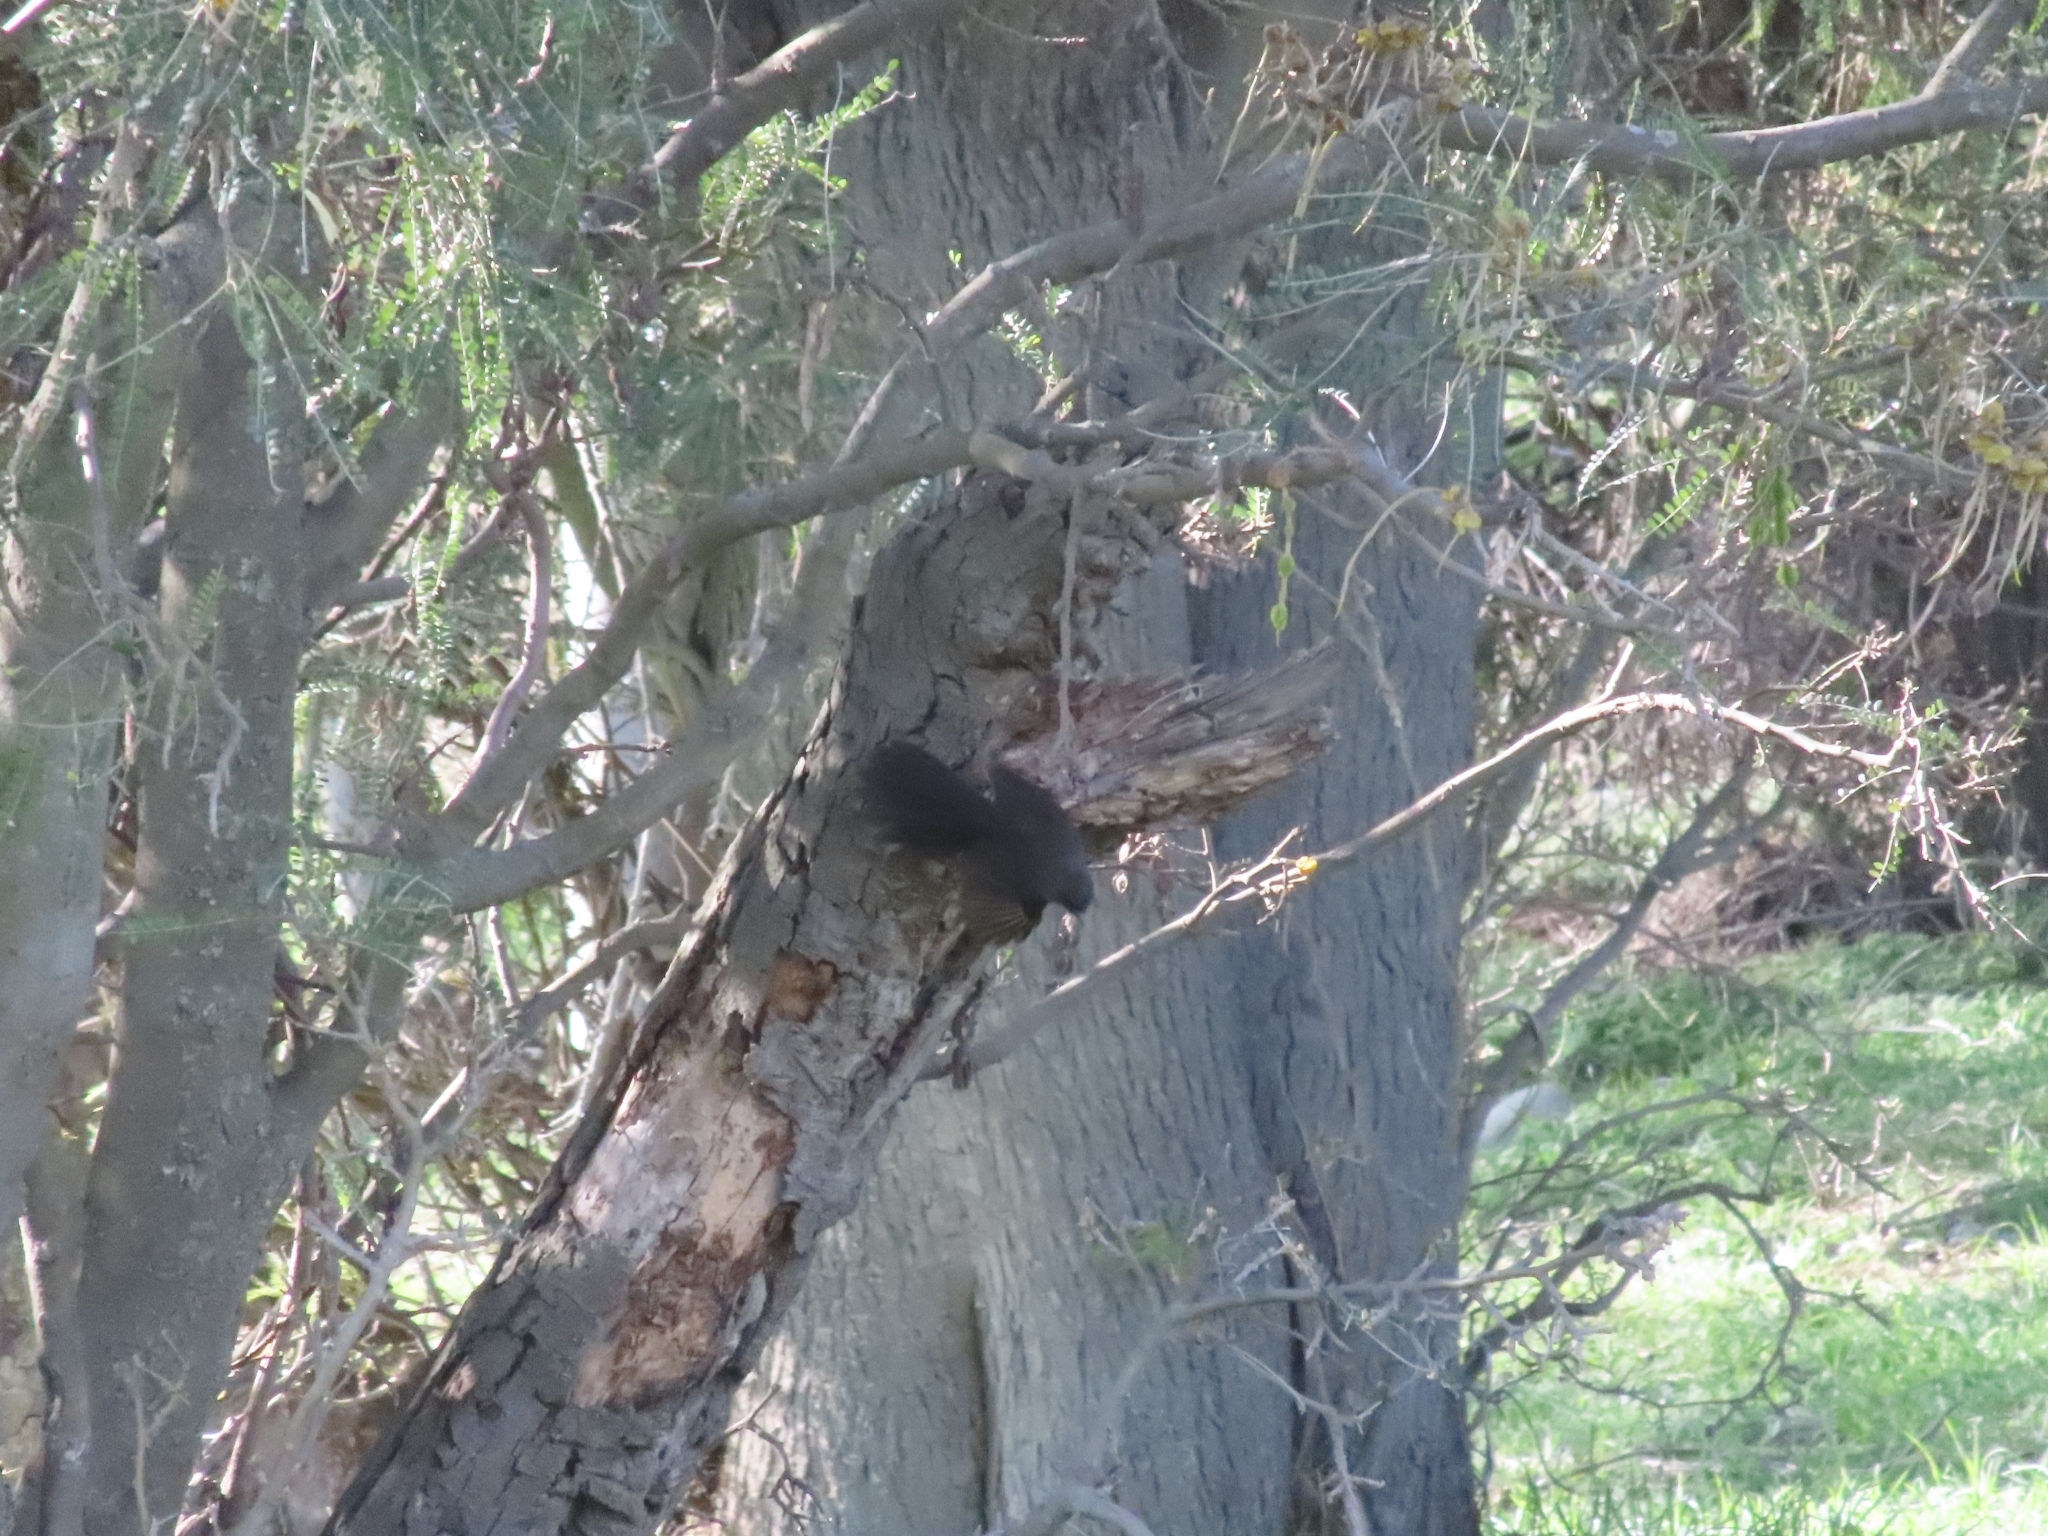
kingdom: Animalia
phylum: Chordata
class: Aves
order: Passeriformes
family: Rhipiduridae
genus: Rhipidura
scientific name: Rhipidura fuliginosa
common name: New zealand fantail
